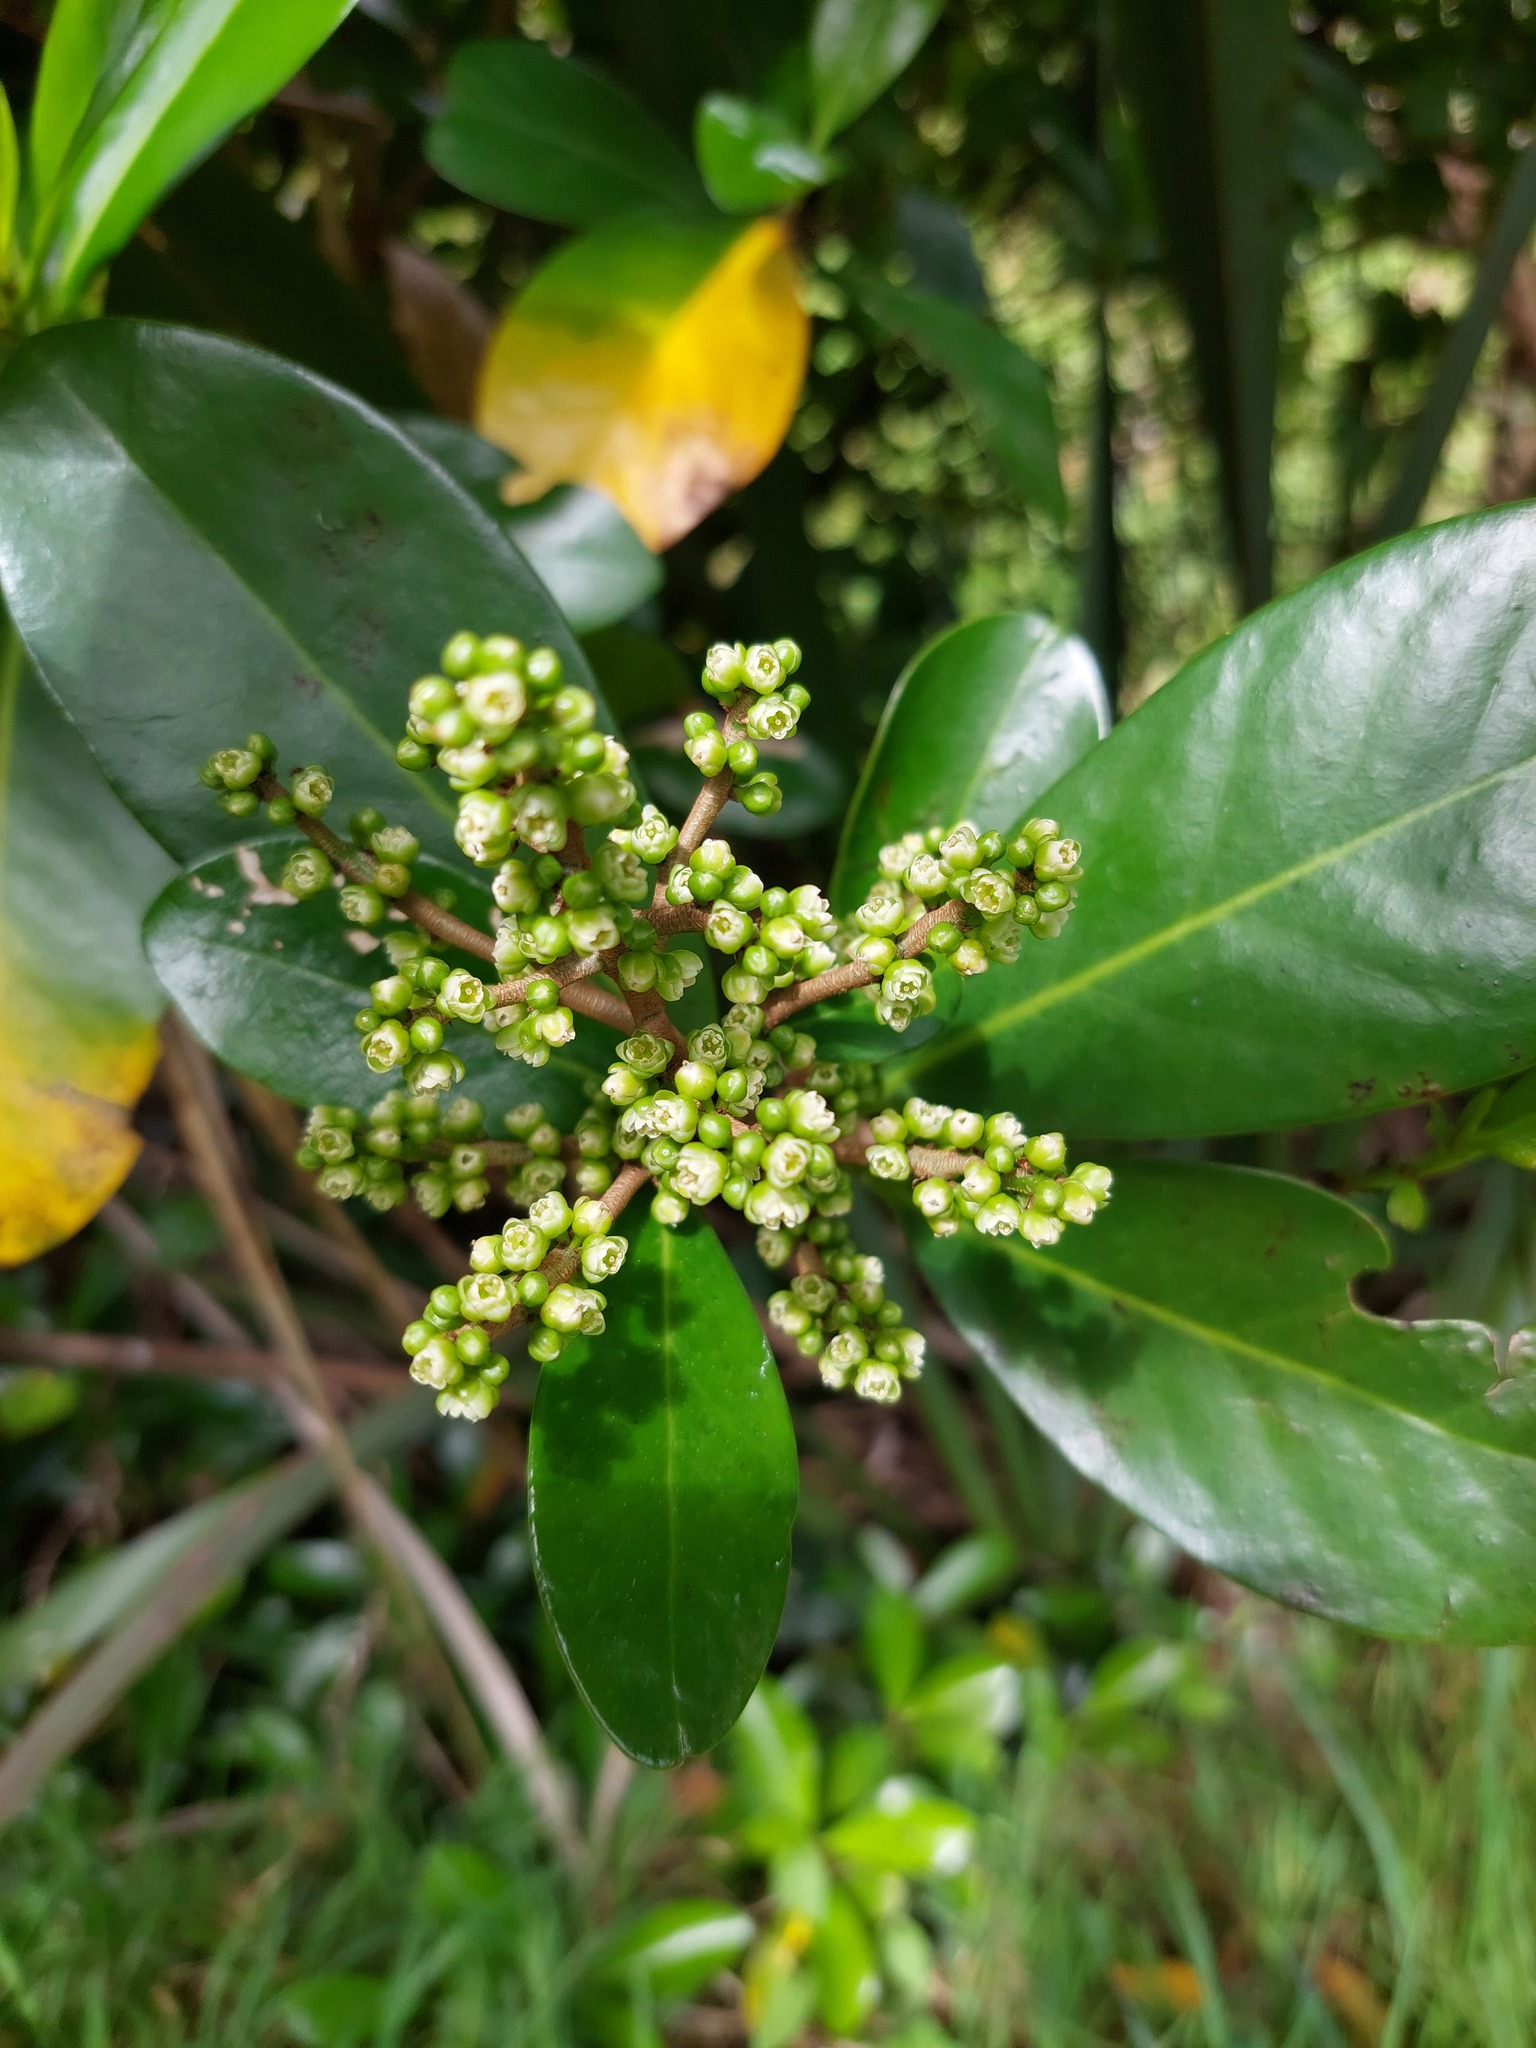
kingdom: Plantae
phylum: Tracheophyta
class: Magnoliopsida
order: Cucurbitales
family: Corynocarpaceae
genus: Corynocarpus
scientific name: Corynocarpus laevigatus
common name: New zealand laurel
